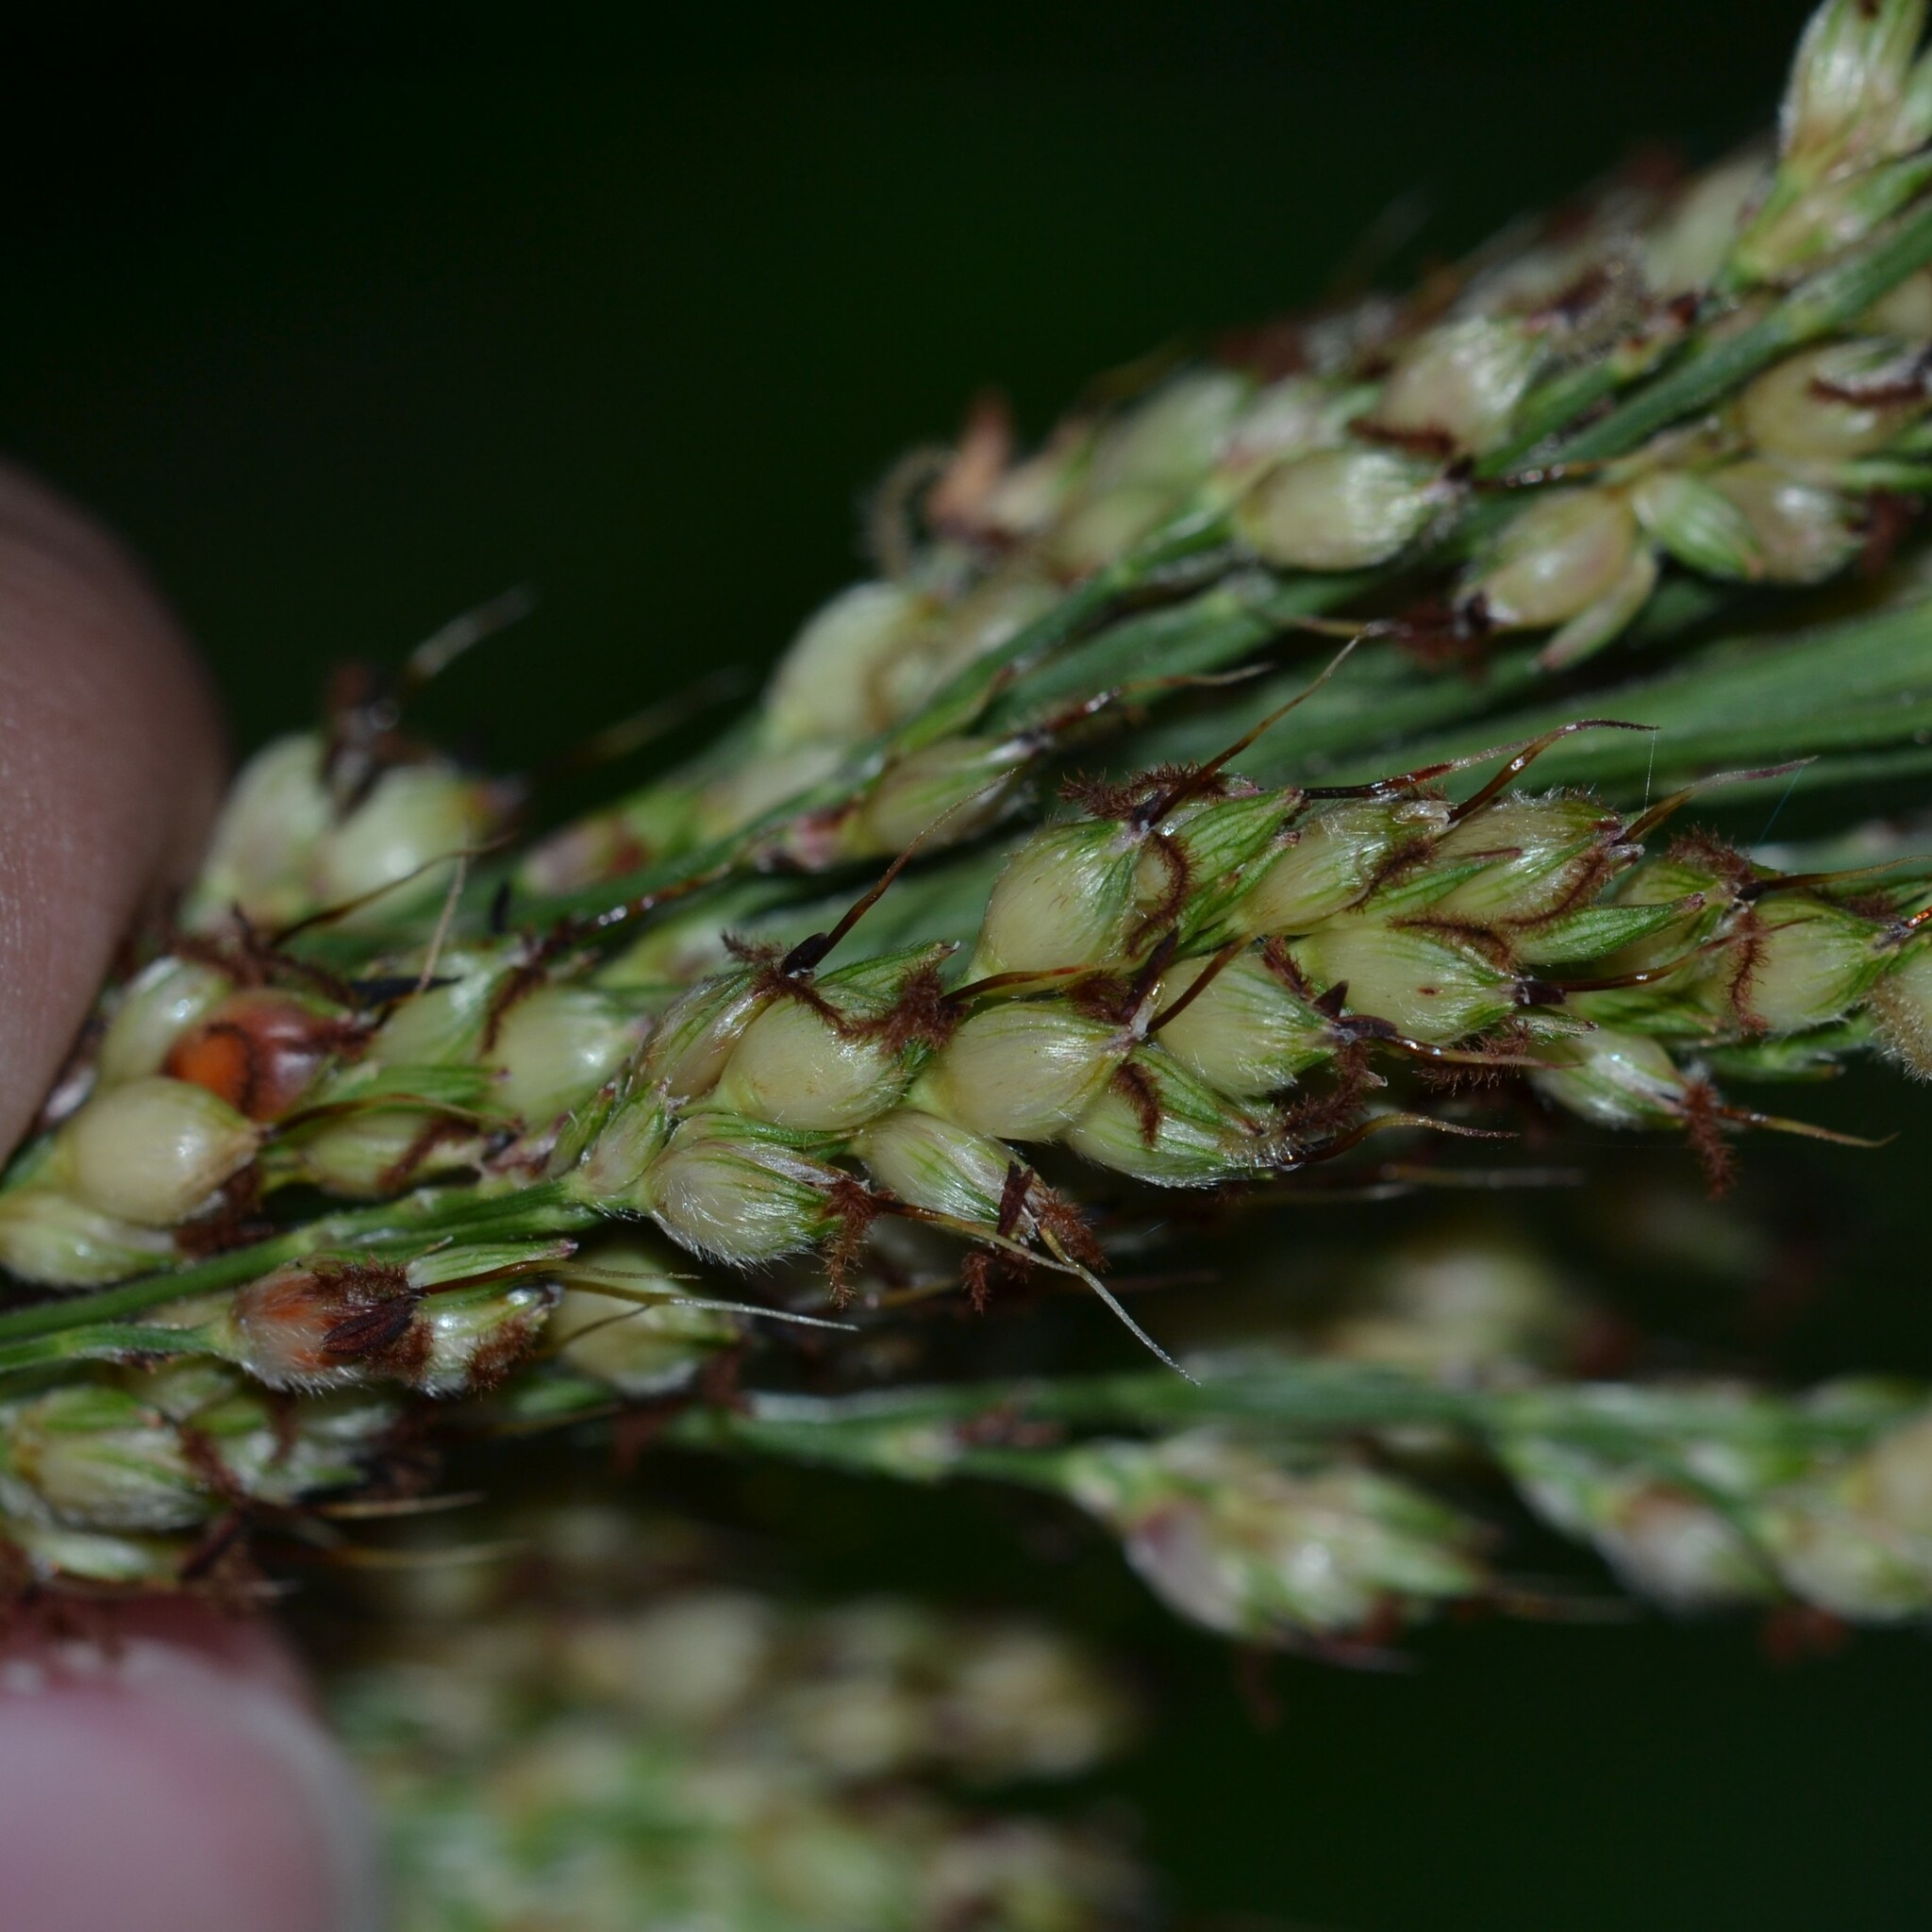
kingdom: Plantae
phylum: Tracheophyta
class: Liliopsida
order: Poales
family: Poaceae
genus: Sorghum
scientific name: Sorghum bicolor
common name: Sorghum
